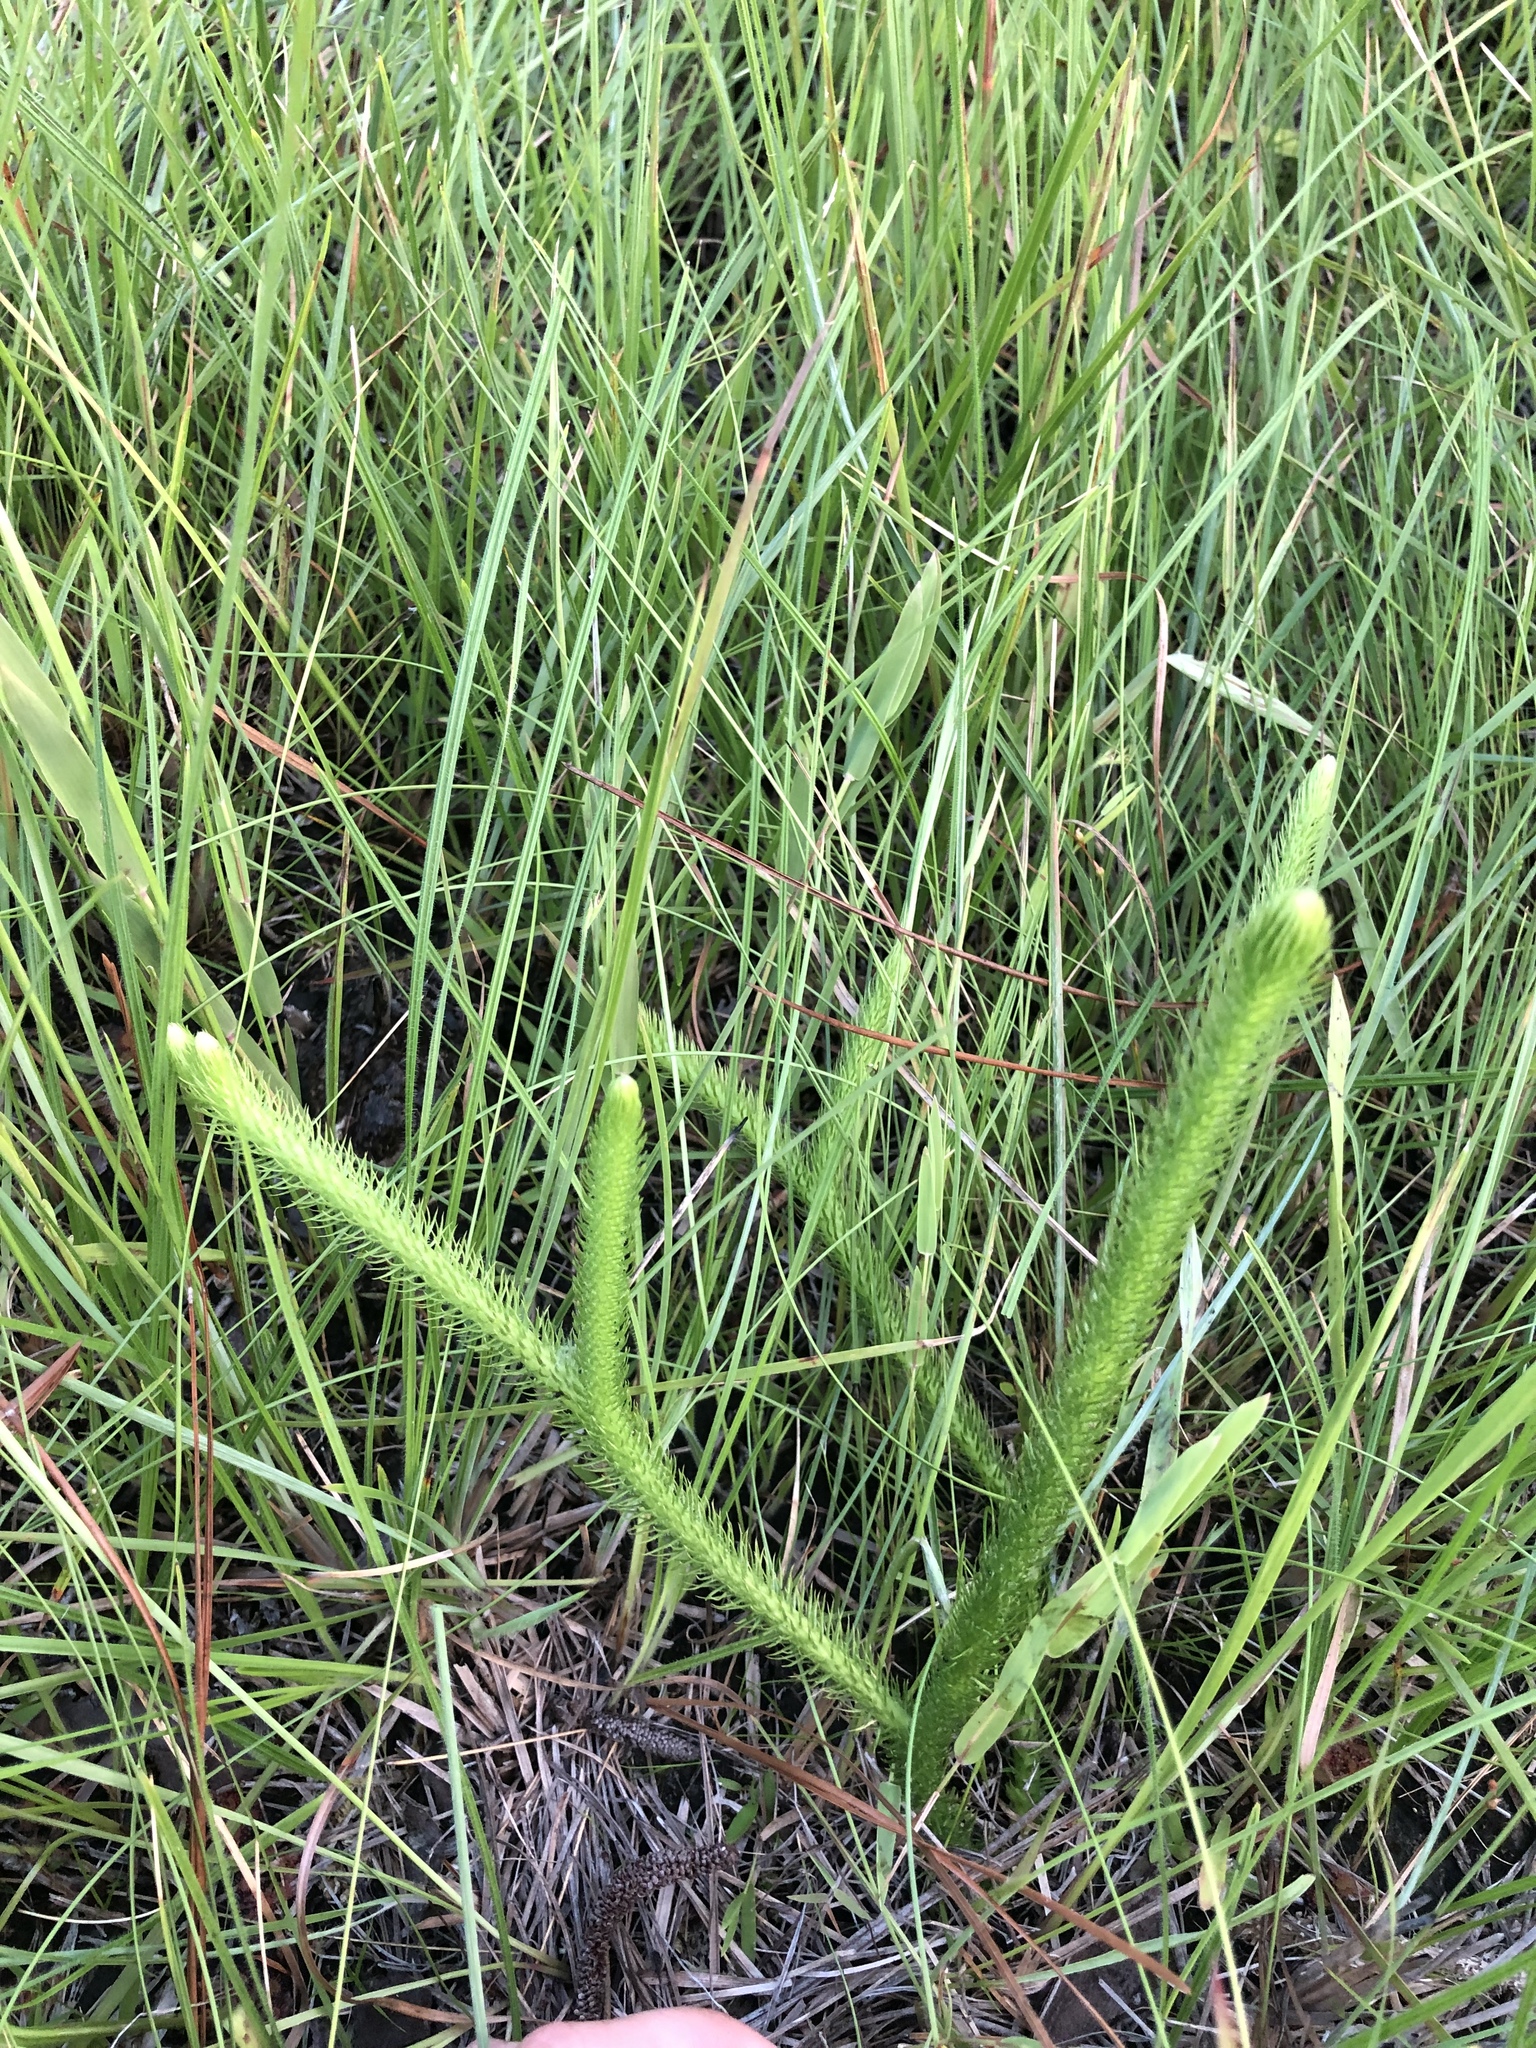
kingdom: Plantae
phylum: Tracheophyta
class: Lycopodiopsida
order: Lycopodiales
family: Lycopodiaceae
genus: Lycopodiella
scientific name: Lycopodiella alopecuroides
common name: Foxtail clubmoss
